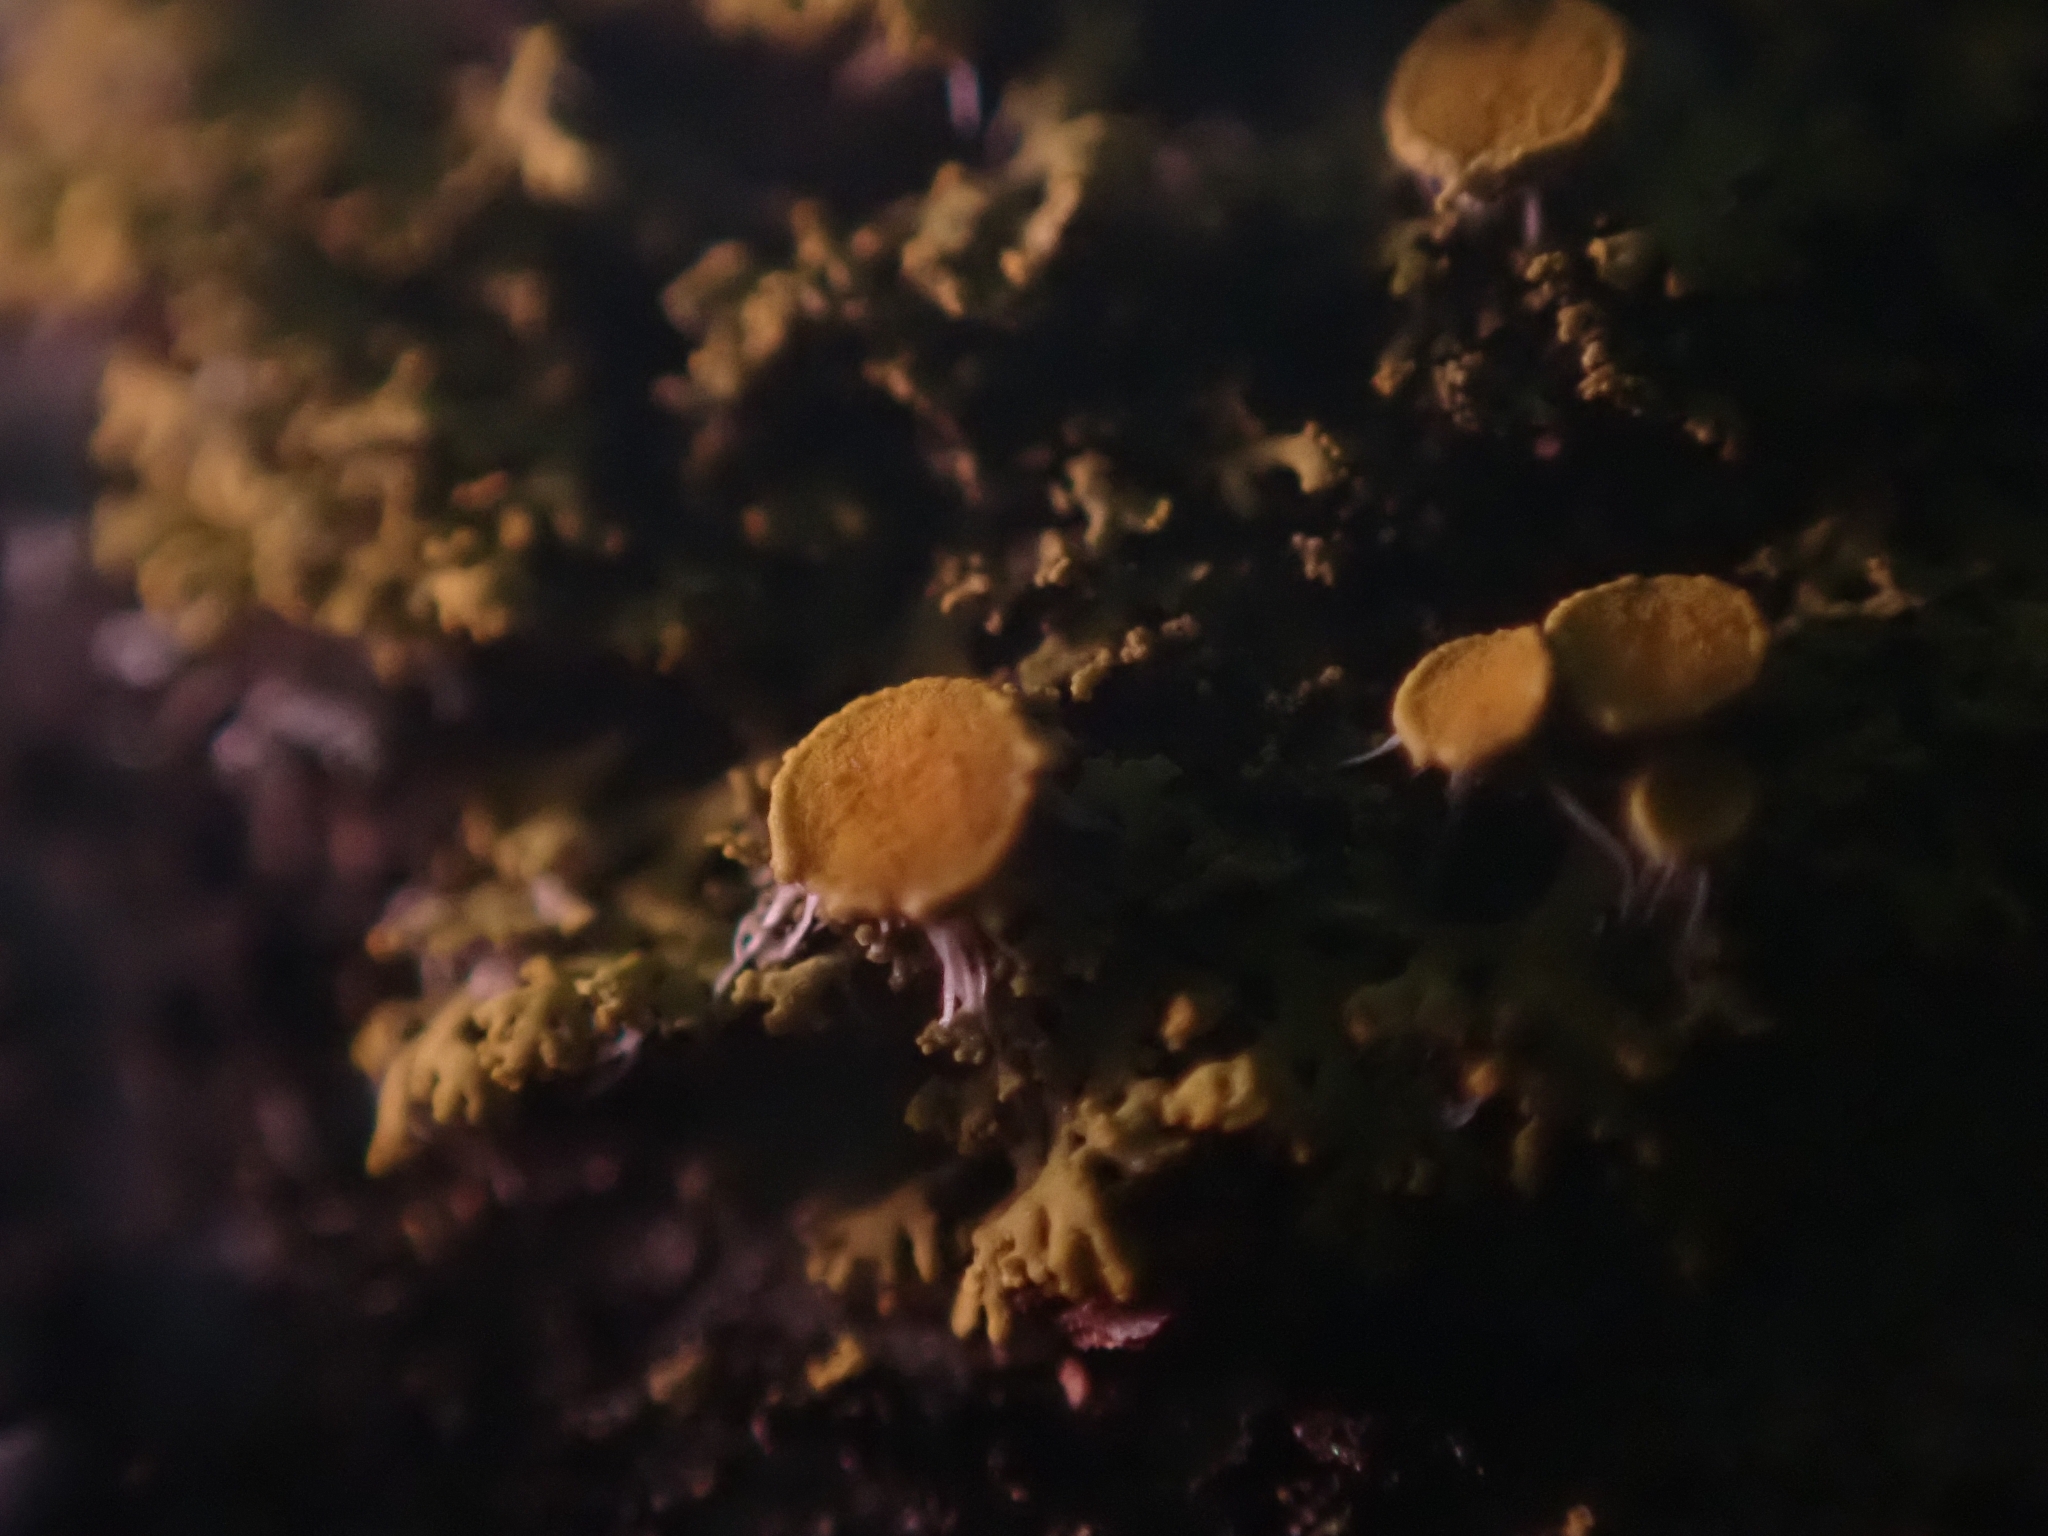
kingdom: Fungi
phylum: Ascomycota
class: Candelariomycetes
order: Candelariales
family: Candelariaceae
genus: Candelaria
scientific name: Candelaria concolor
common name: Candleflame lichen
